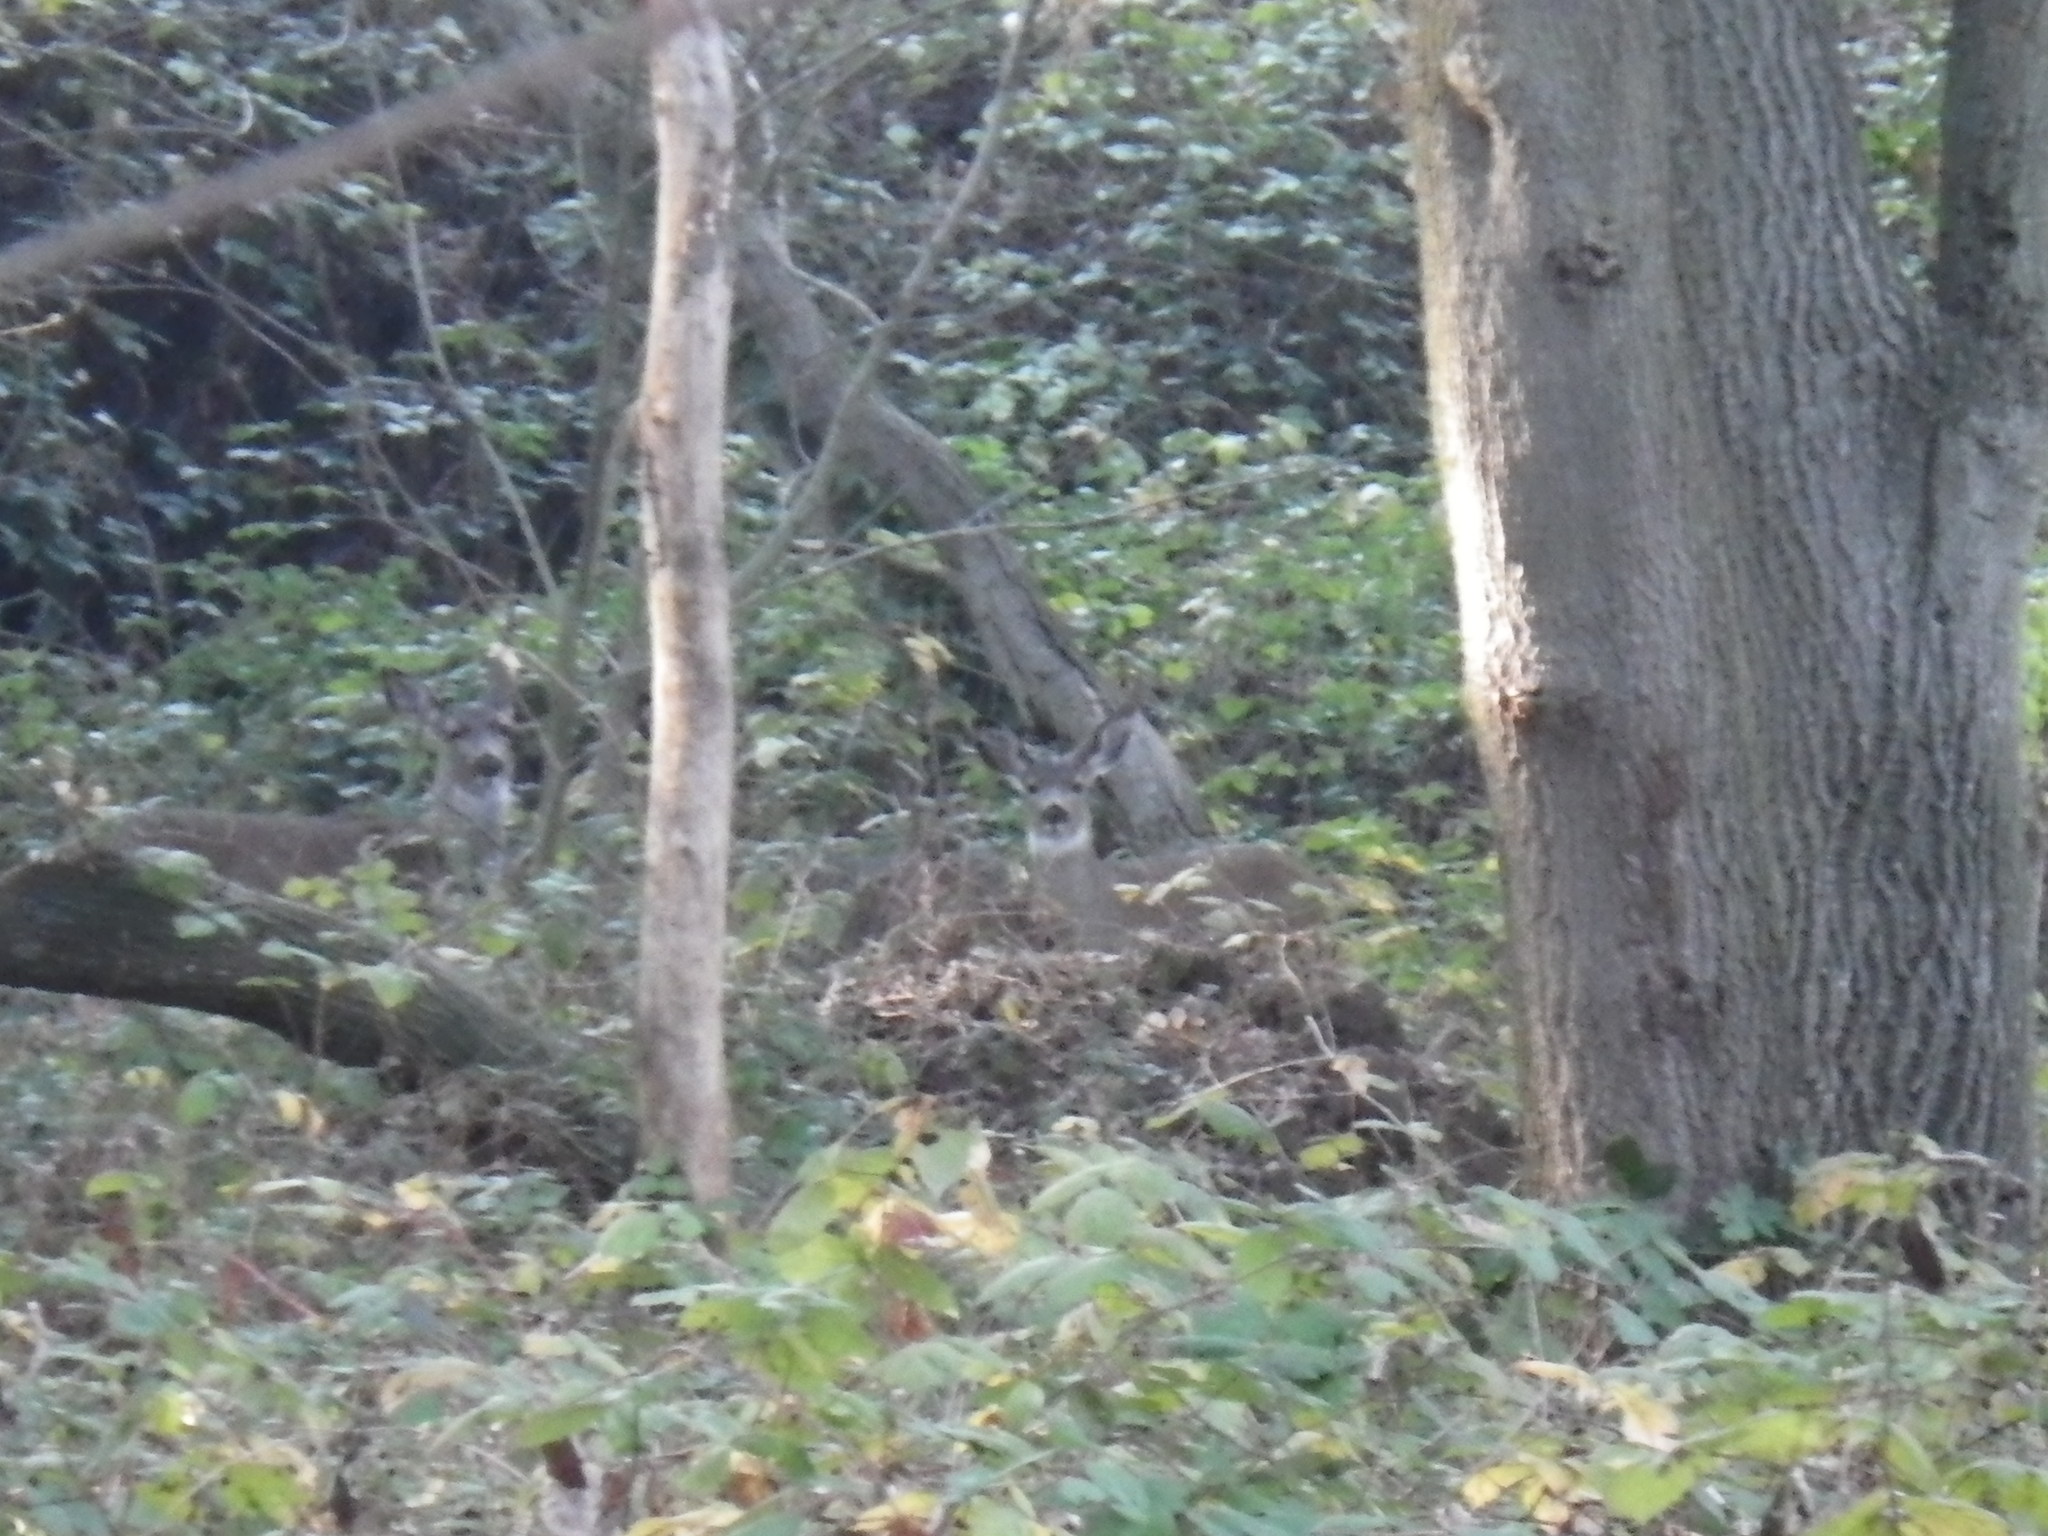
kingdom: Animalia
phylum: Chordata
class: Mammalia
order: Artiodactyla
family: Cervidae
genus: Odocoileus
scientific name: Odocoileus hemionus
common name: Mule deer
